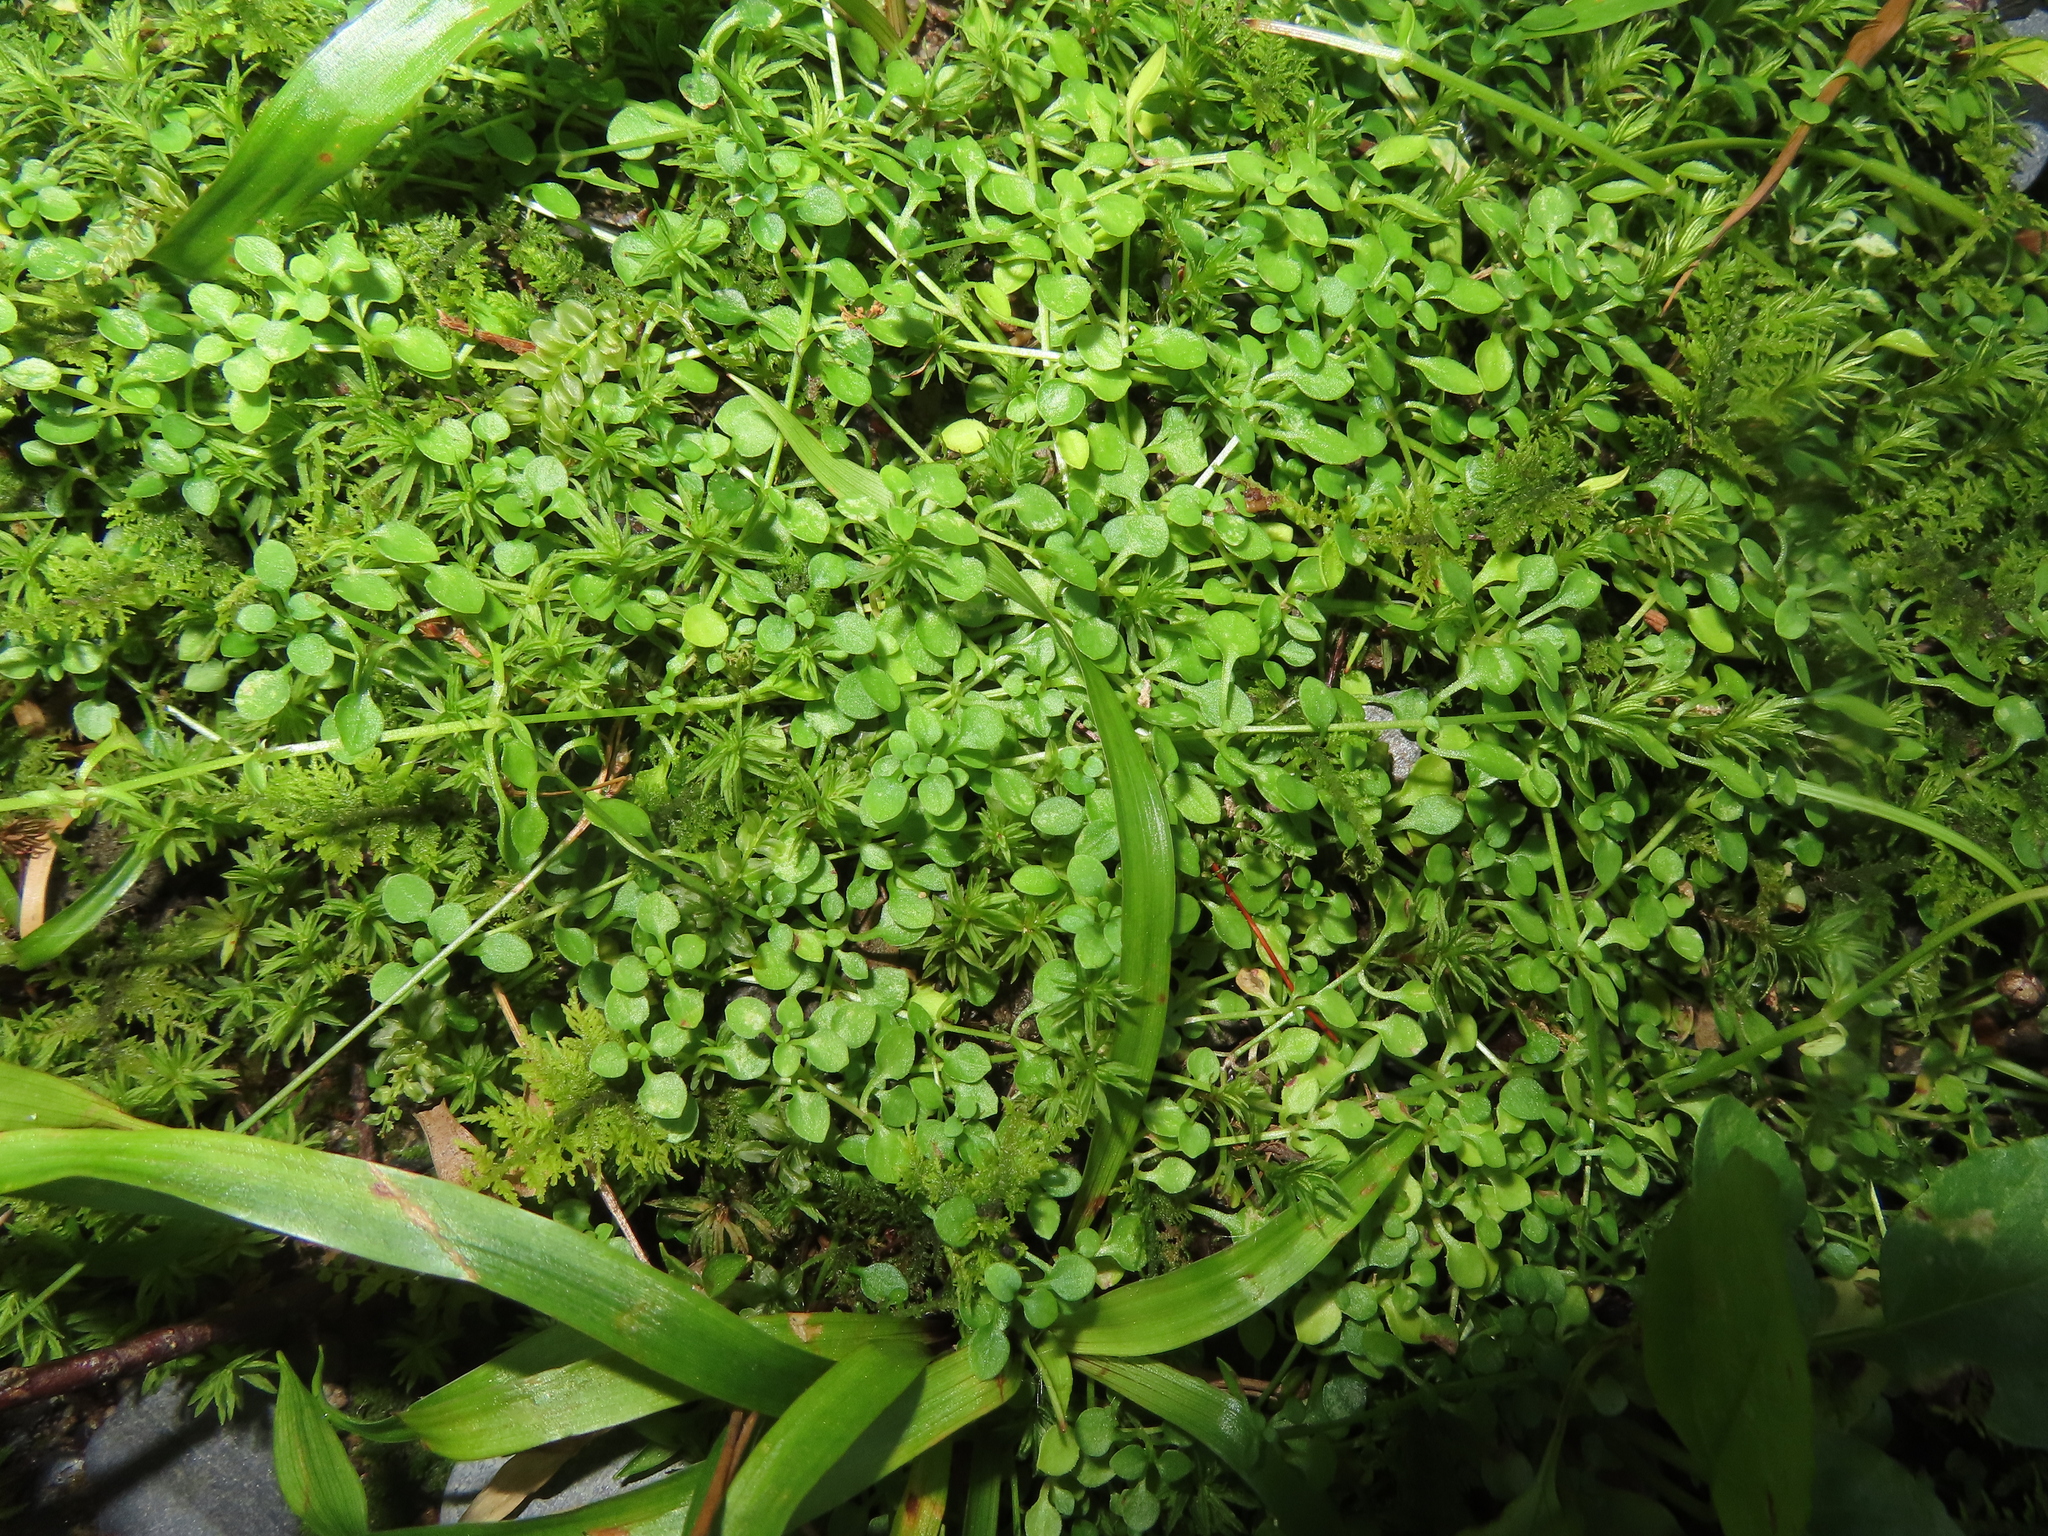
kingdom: Plantae
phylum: Tracheophyta
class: Magnoliopsida
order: Gentianales
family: Rubiaceae
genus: Houstonia
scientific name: Houstonia serpyllifolia
